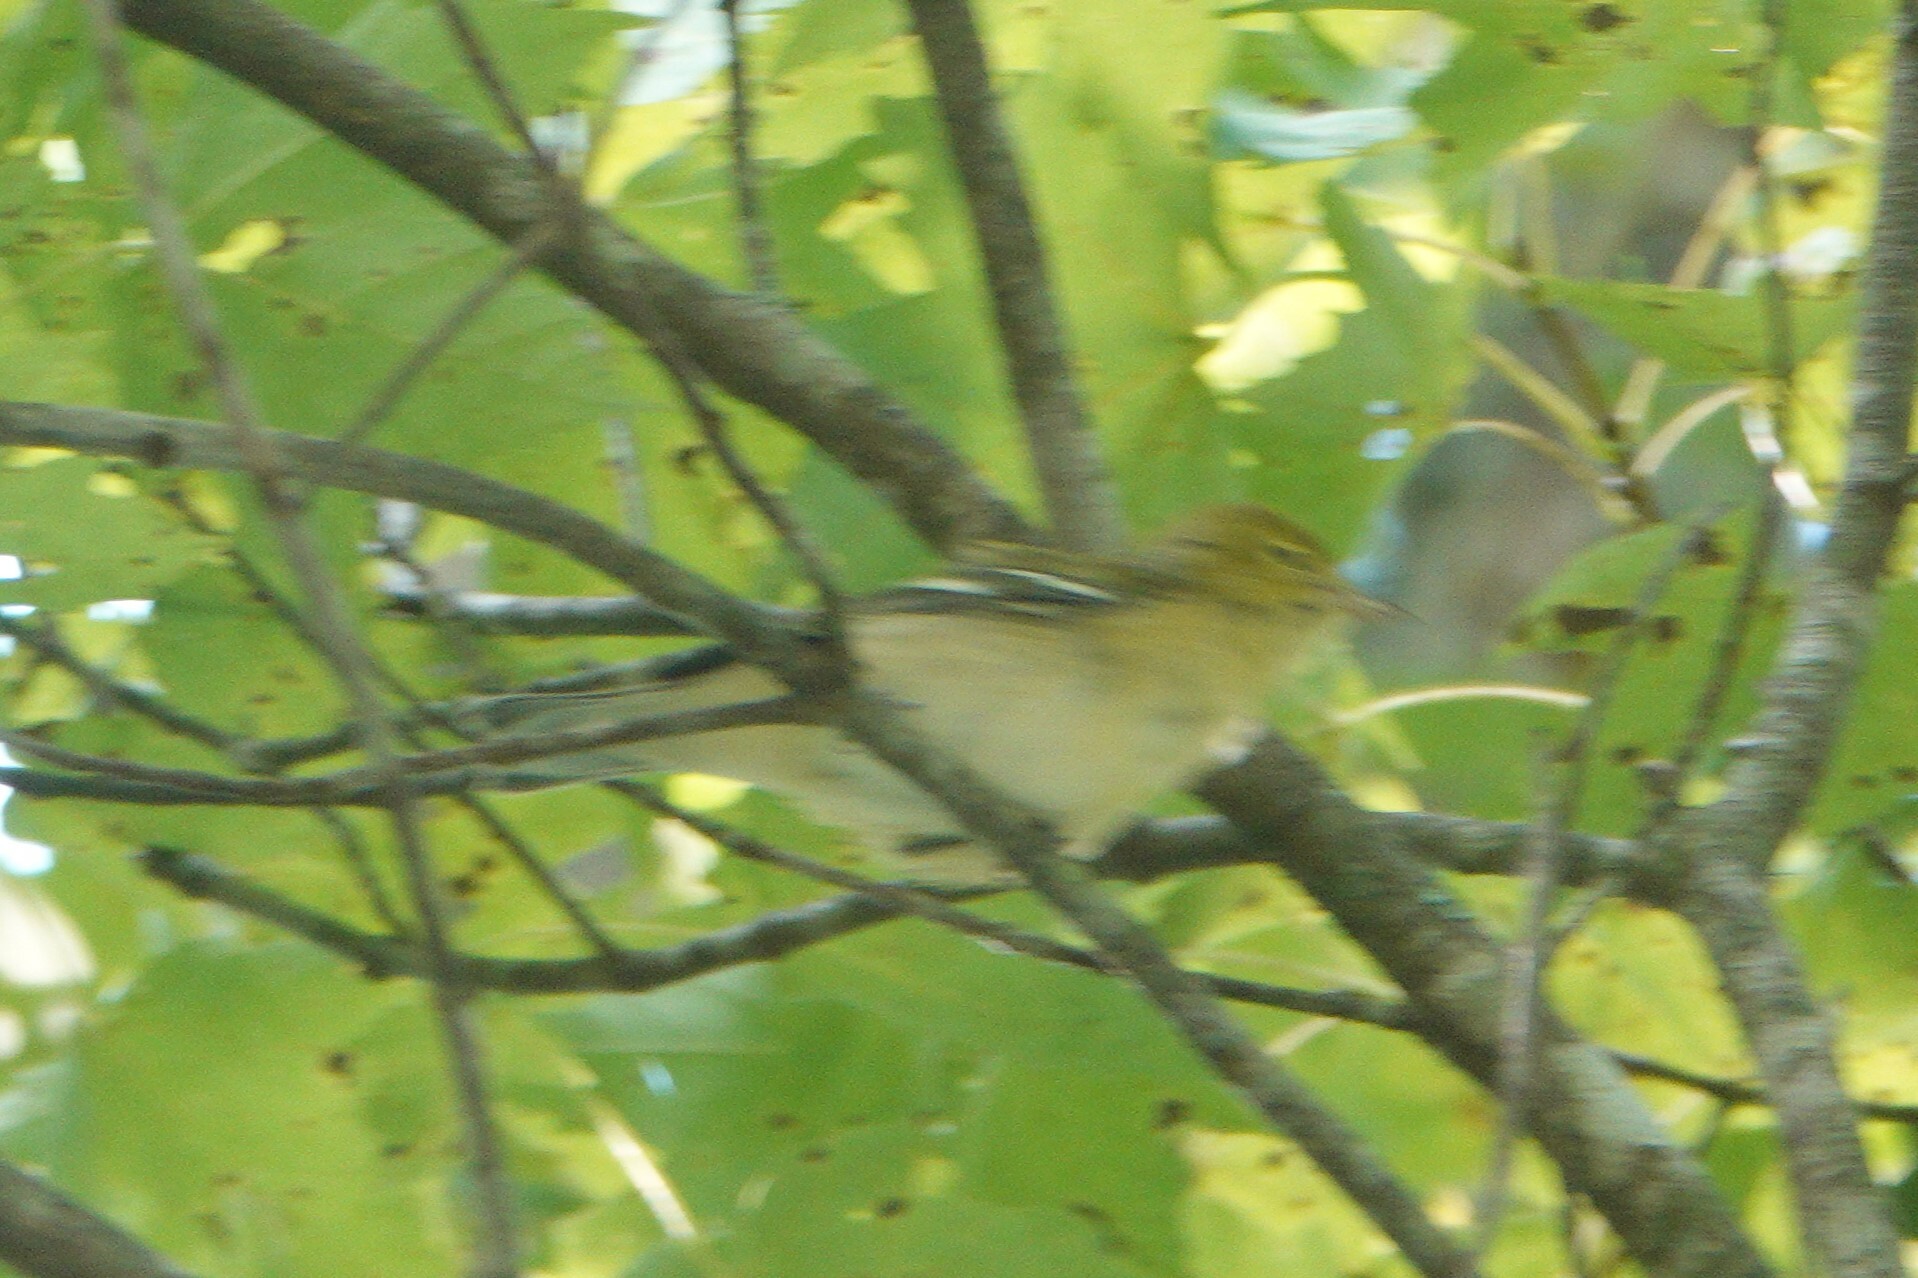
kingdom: Animalia
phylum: Chordata
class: Aves
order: Passeriformes
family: Parulidae
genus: Setophaga
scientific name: Setophaga castanea
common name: Bay-breasted warbler
